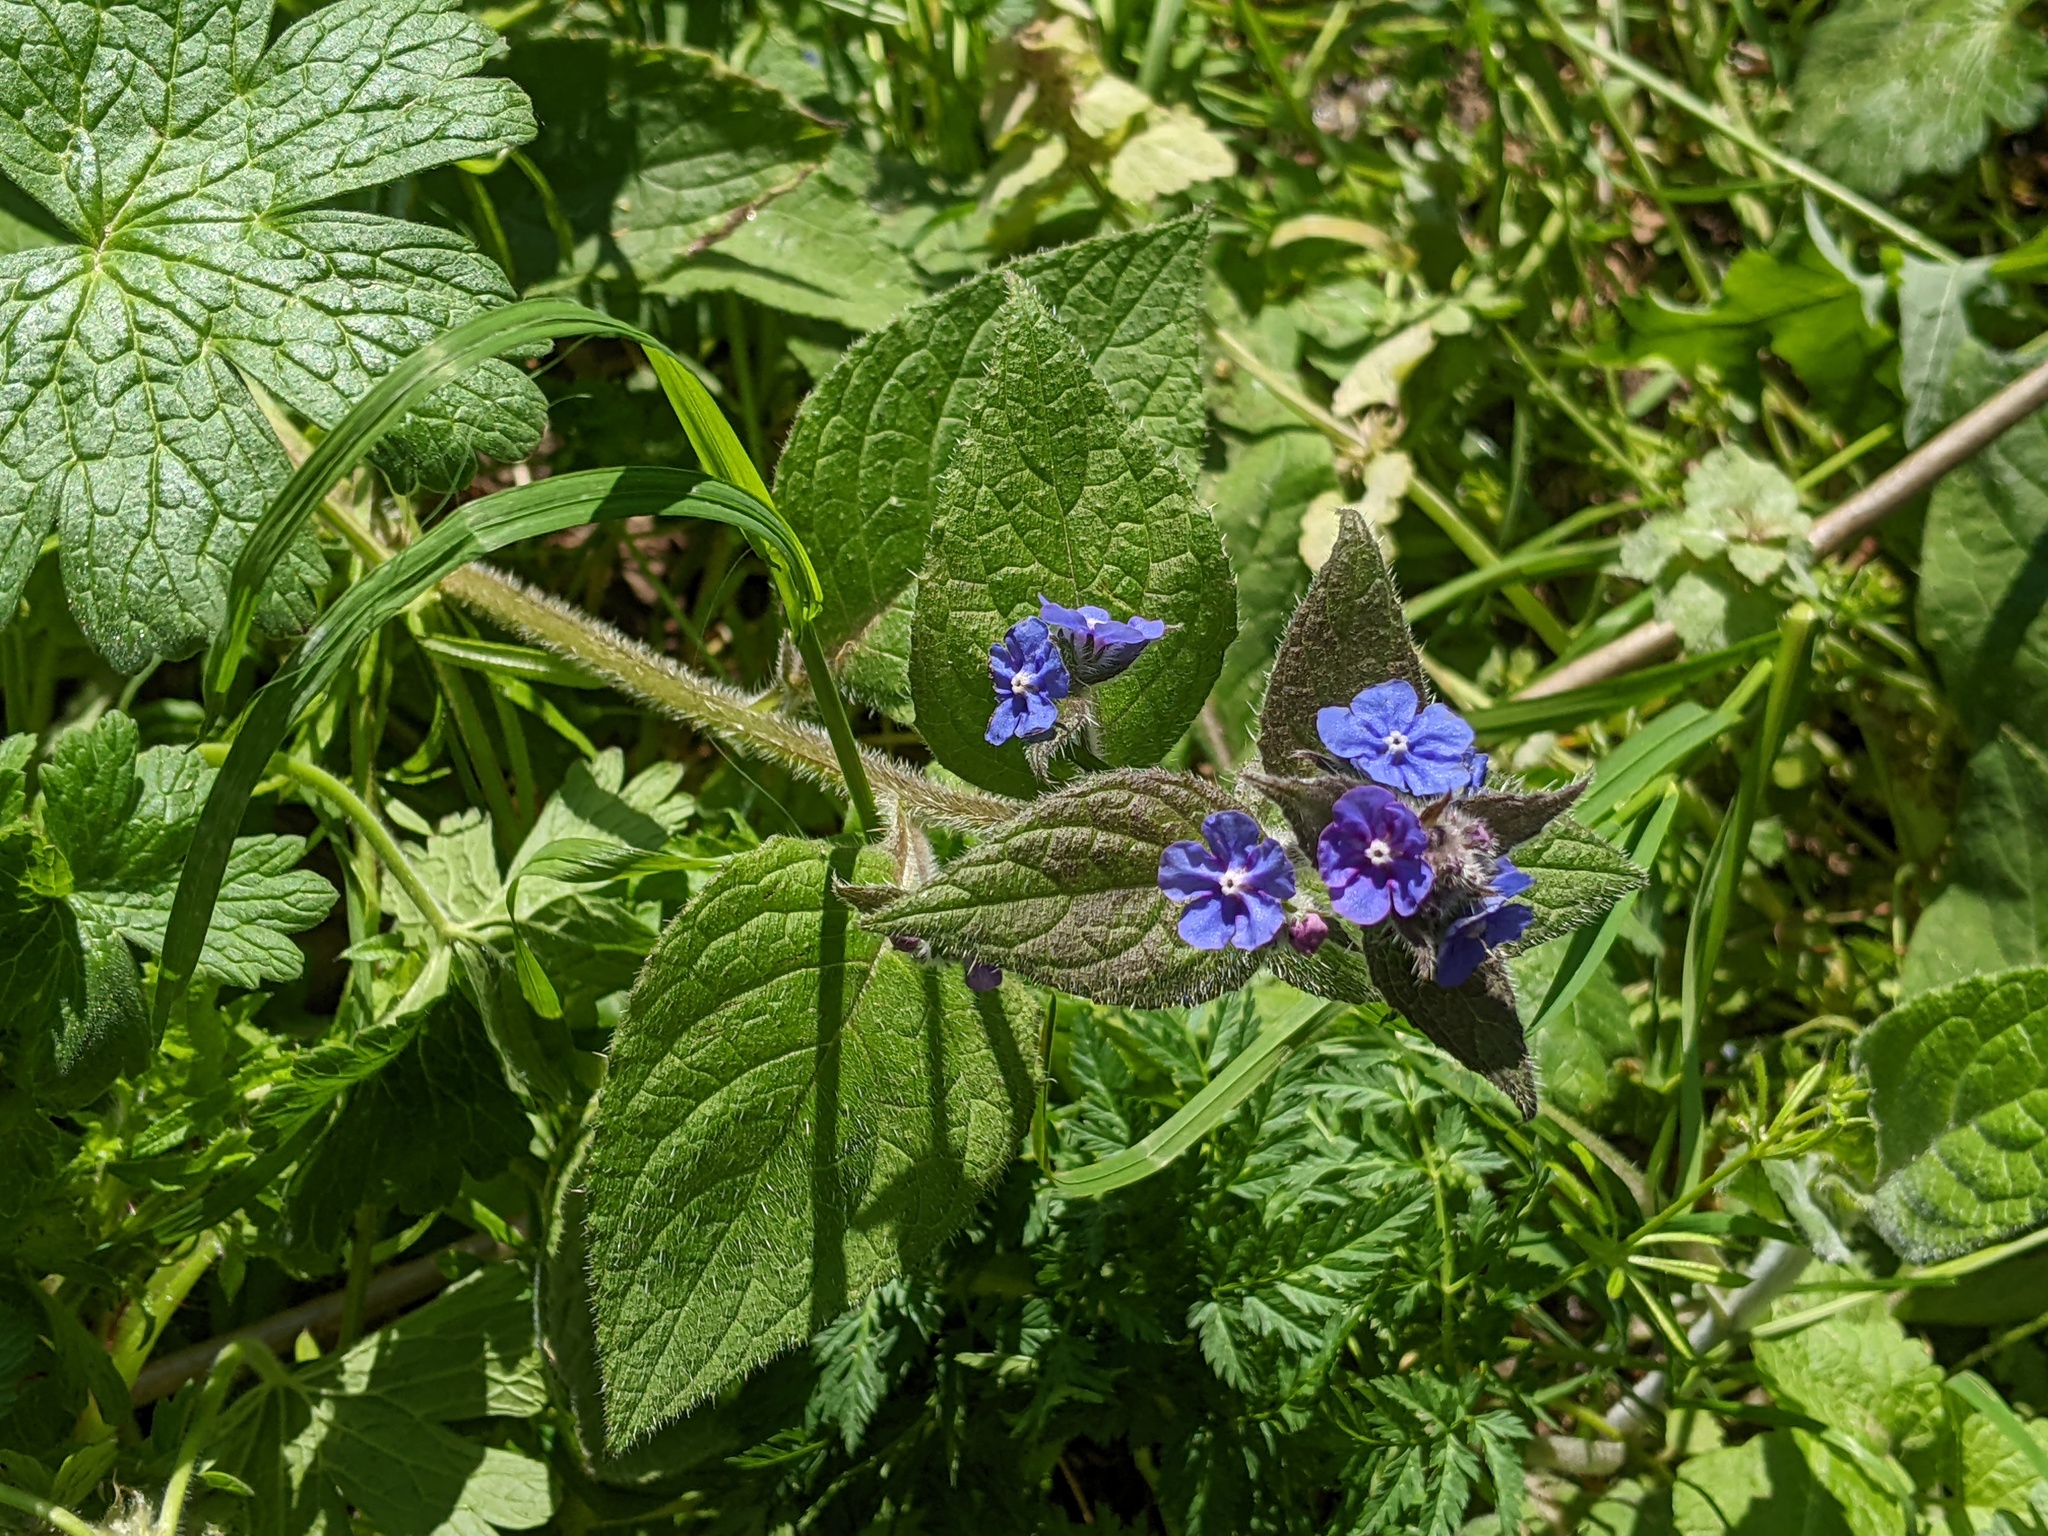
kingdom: Plantae
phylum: Tracheophyta
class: Magnoliopsida
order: Boraginales
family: Boraginaceae
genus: Pentaglottis
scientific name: Pentaglottis sempervirens
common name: Green alkanet
